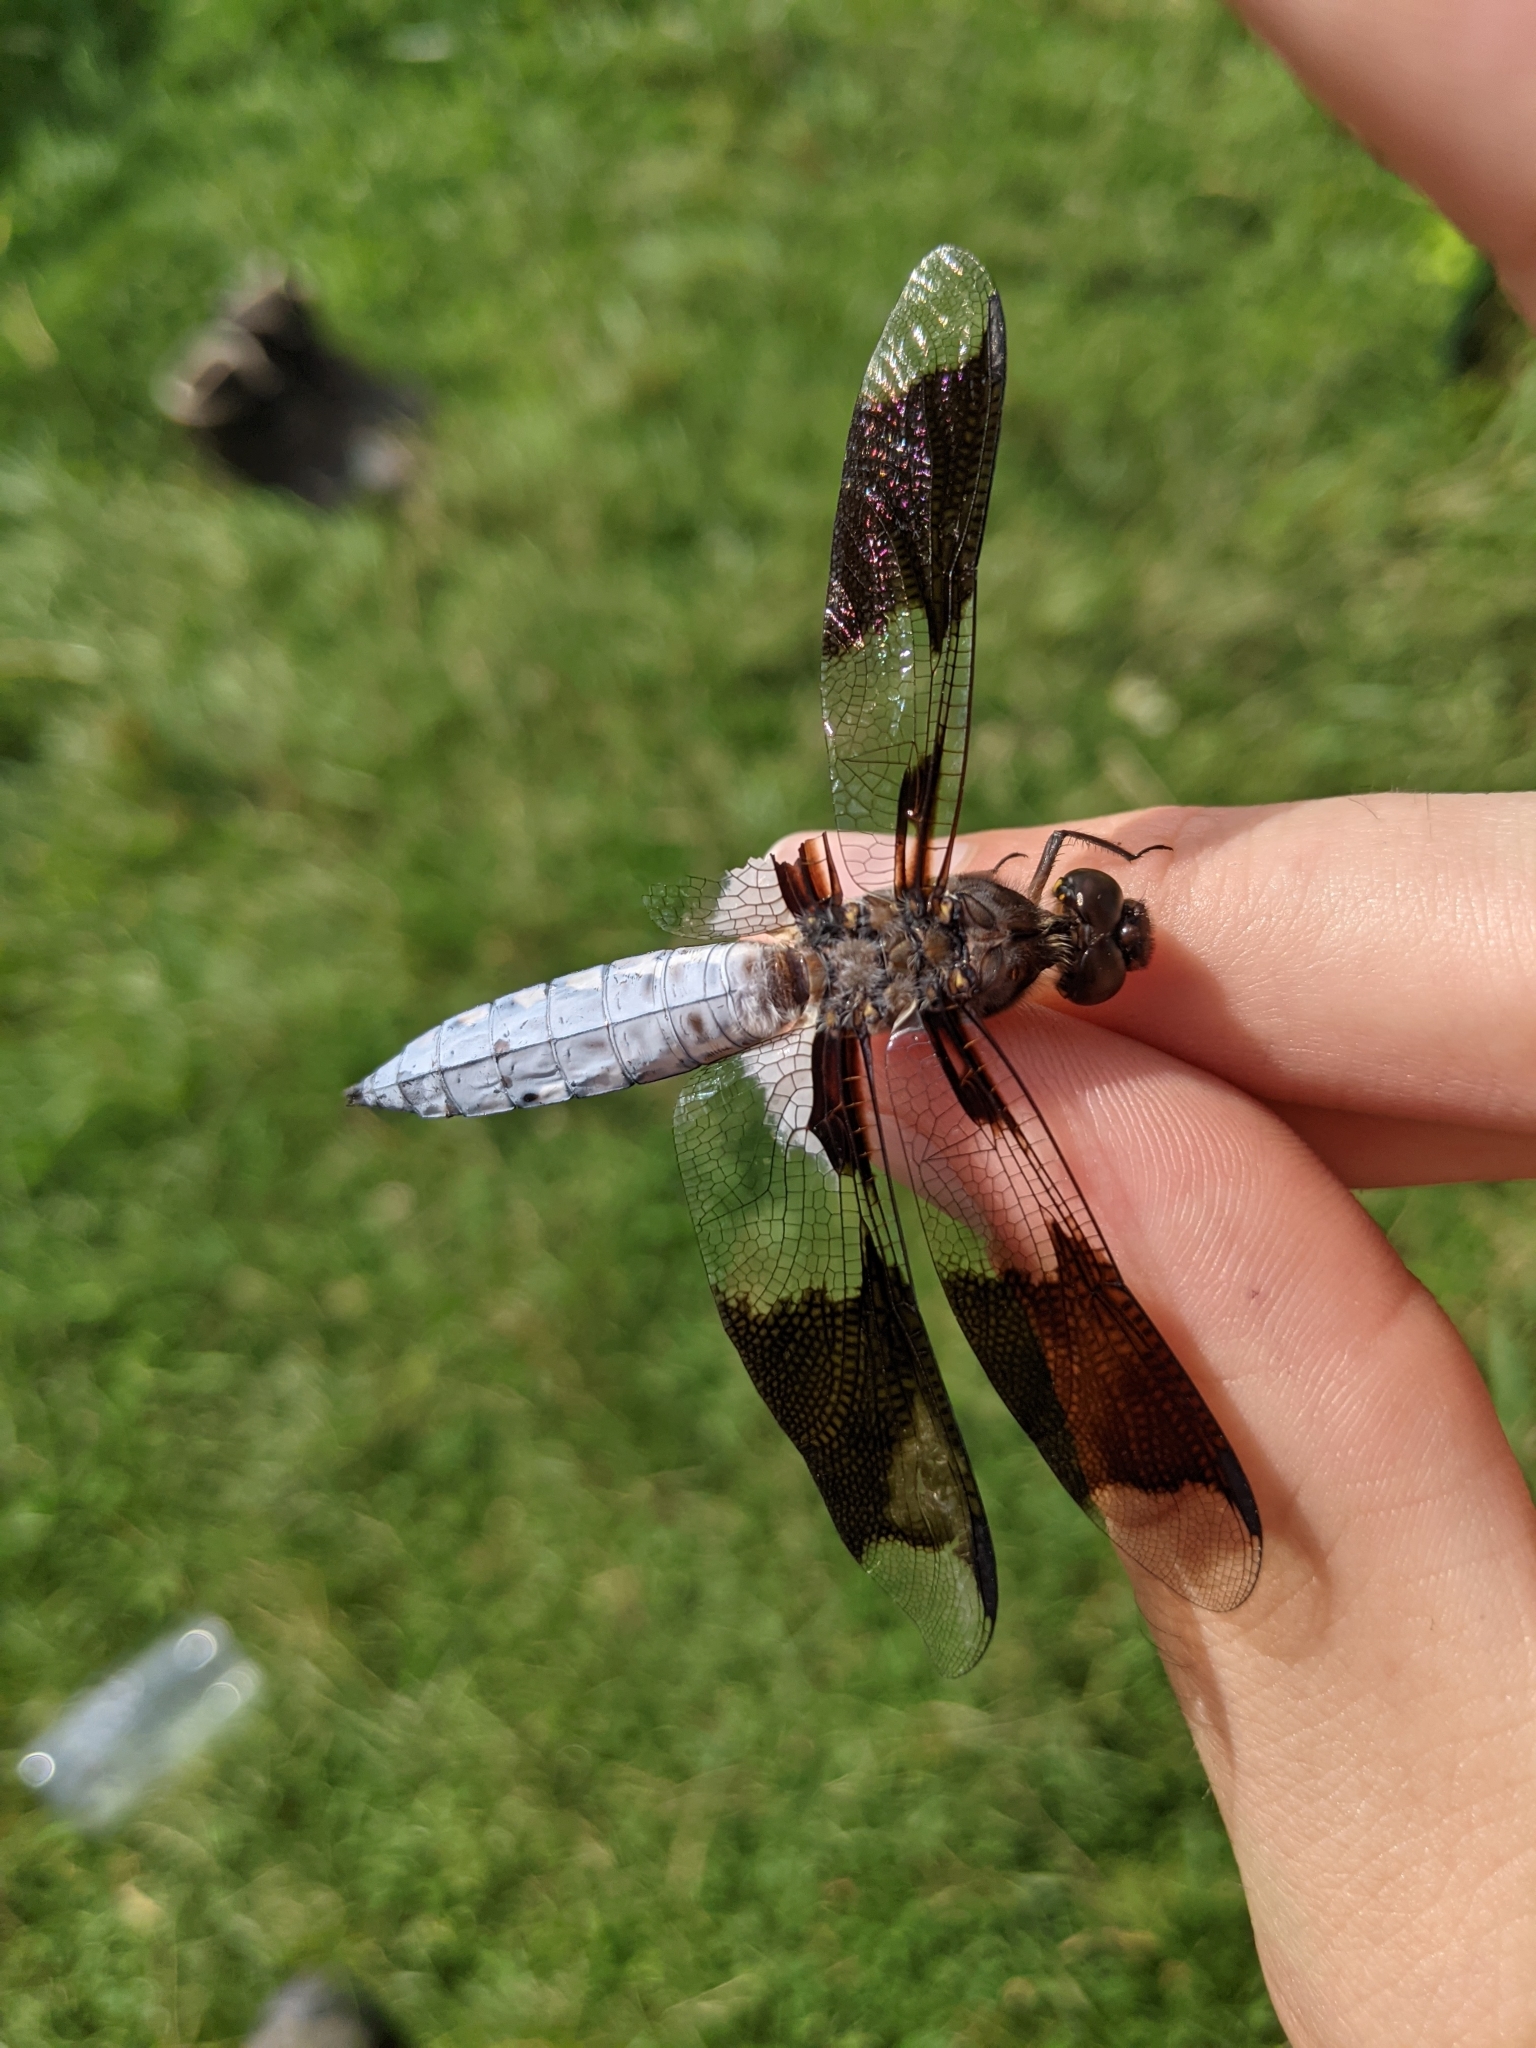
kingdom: Animalia
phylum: Arthropoda
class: Insecta
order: Odonata
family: Libellulidae
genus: Plathemis
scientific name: Plathemis lydia
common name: Common whitetail
